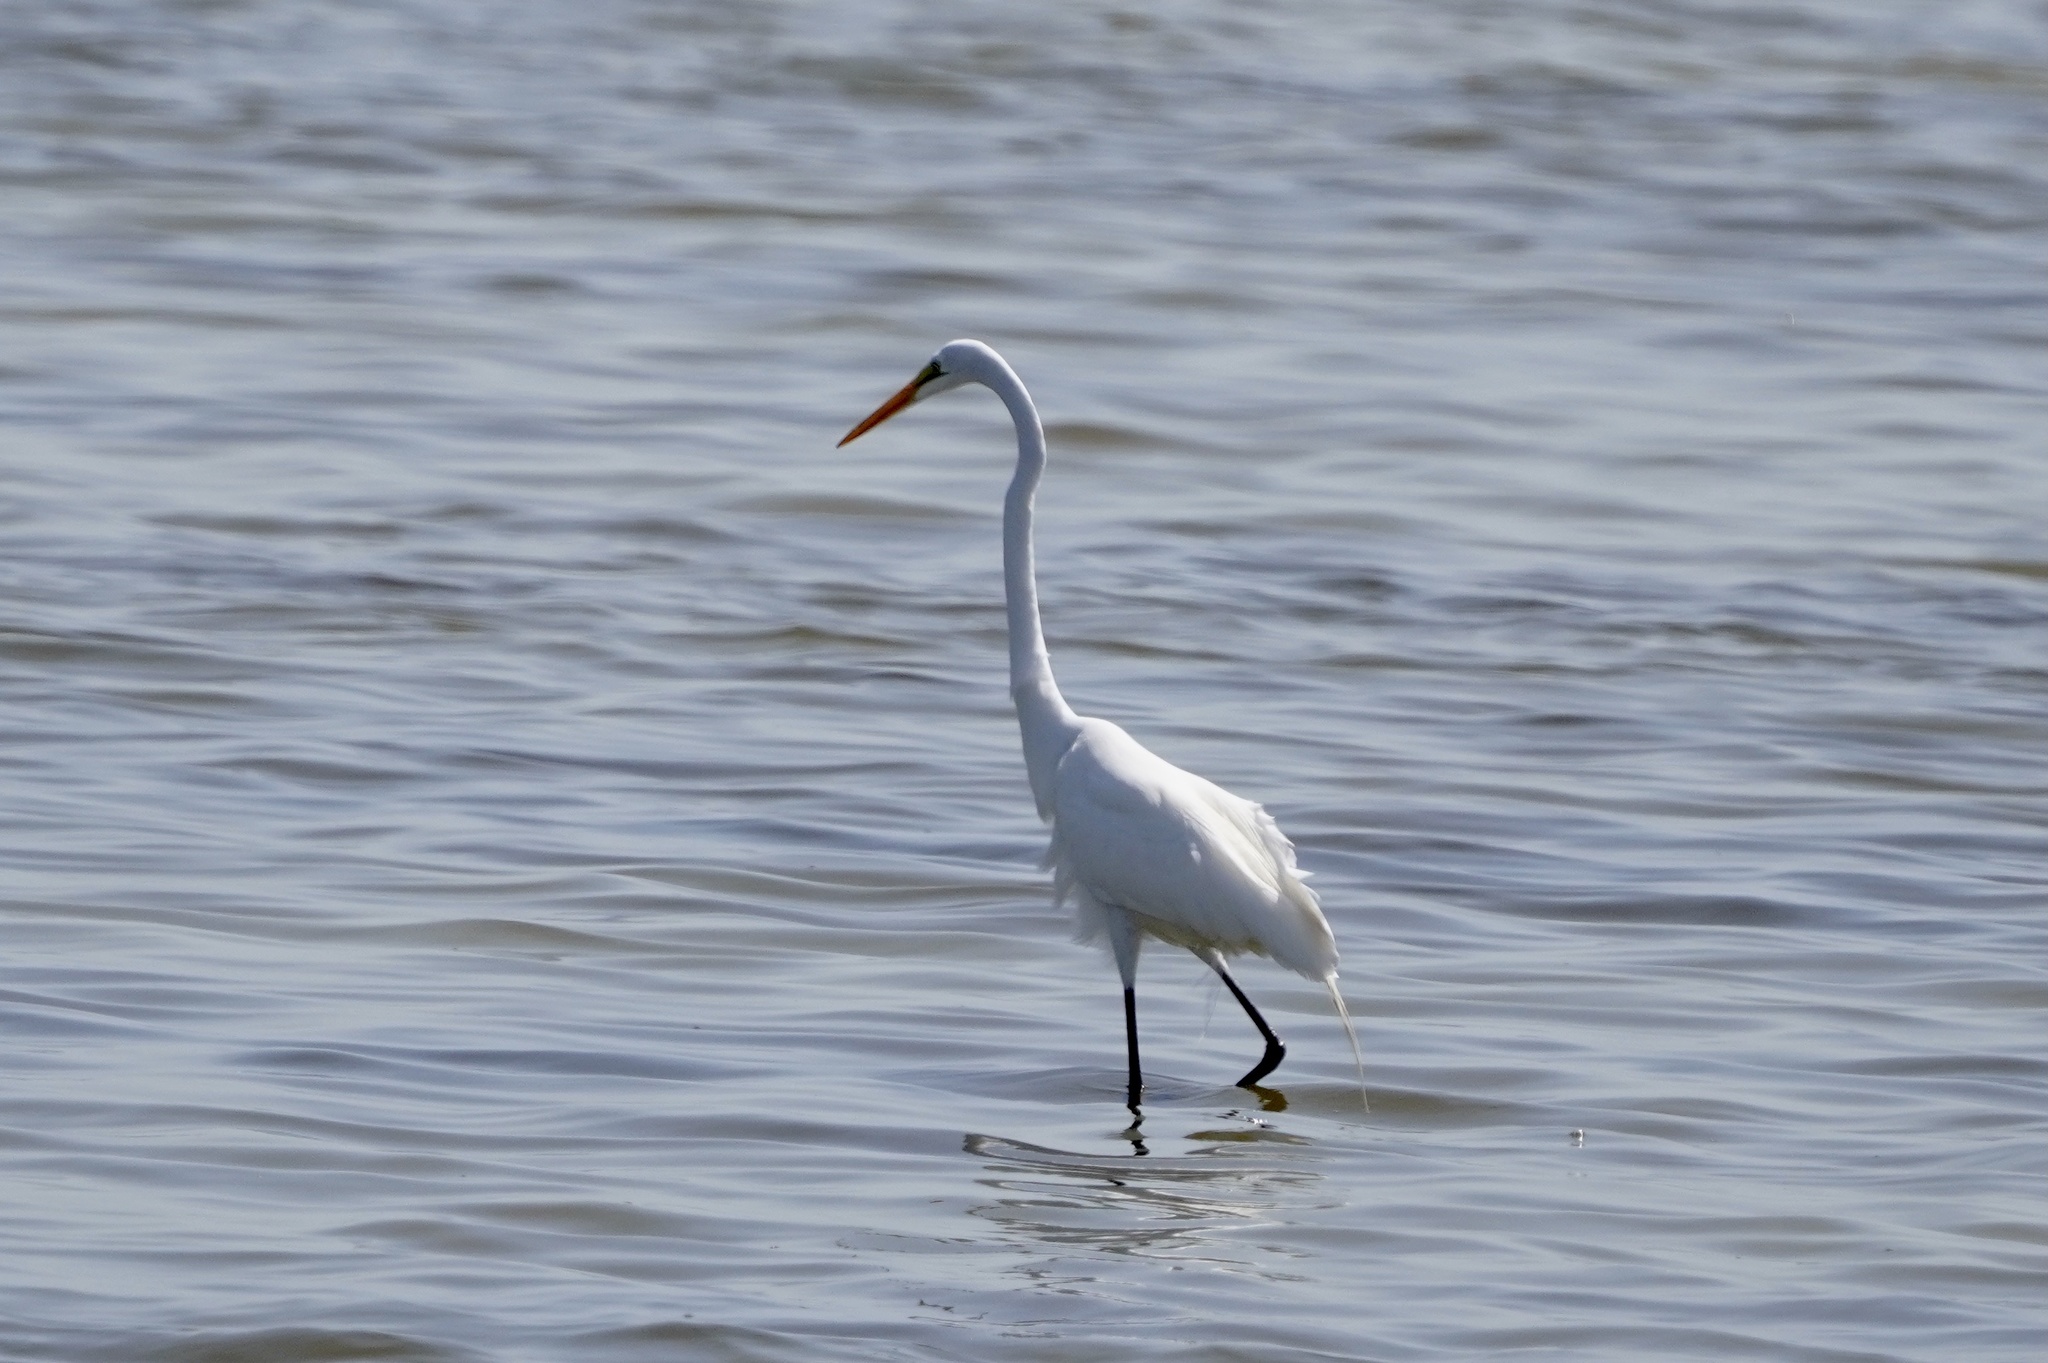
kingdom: Animalia
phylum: Chordata
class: Aves
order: Pelecaniformes
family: Ardeidae
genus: Ardea
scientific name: Ardea alba
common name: Great egret
